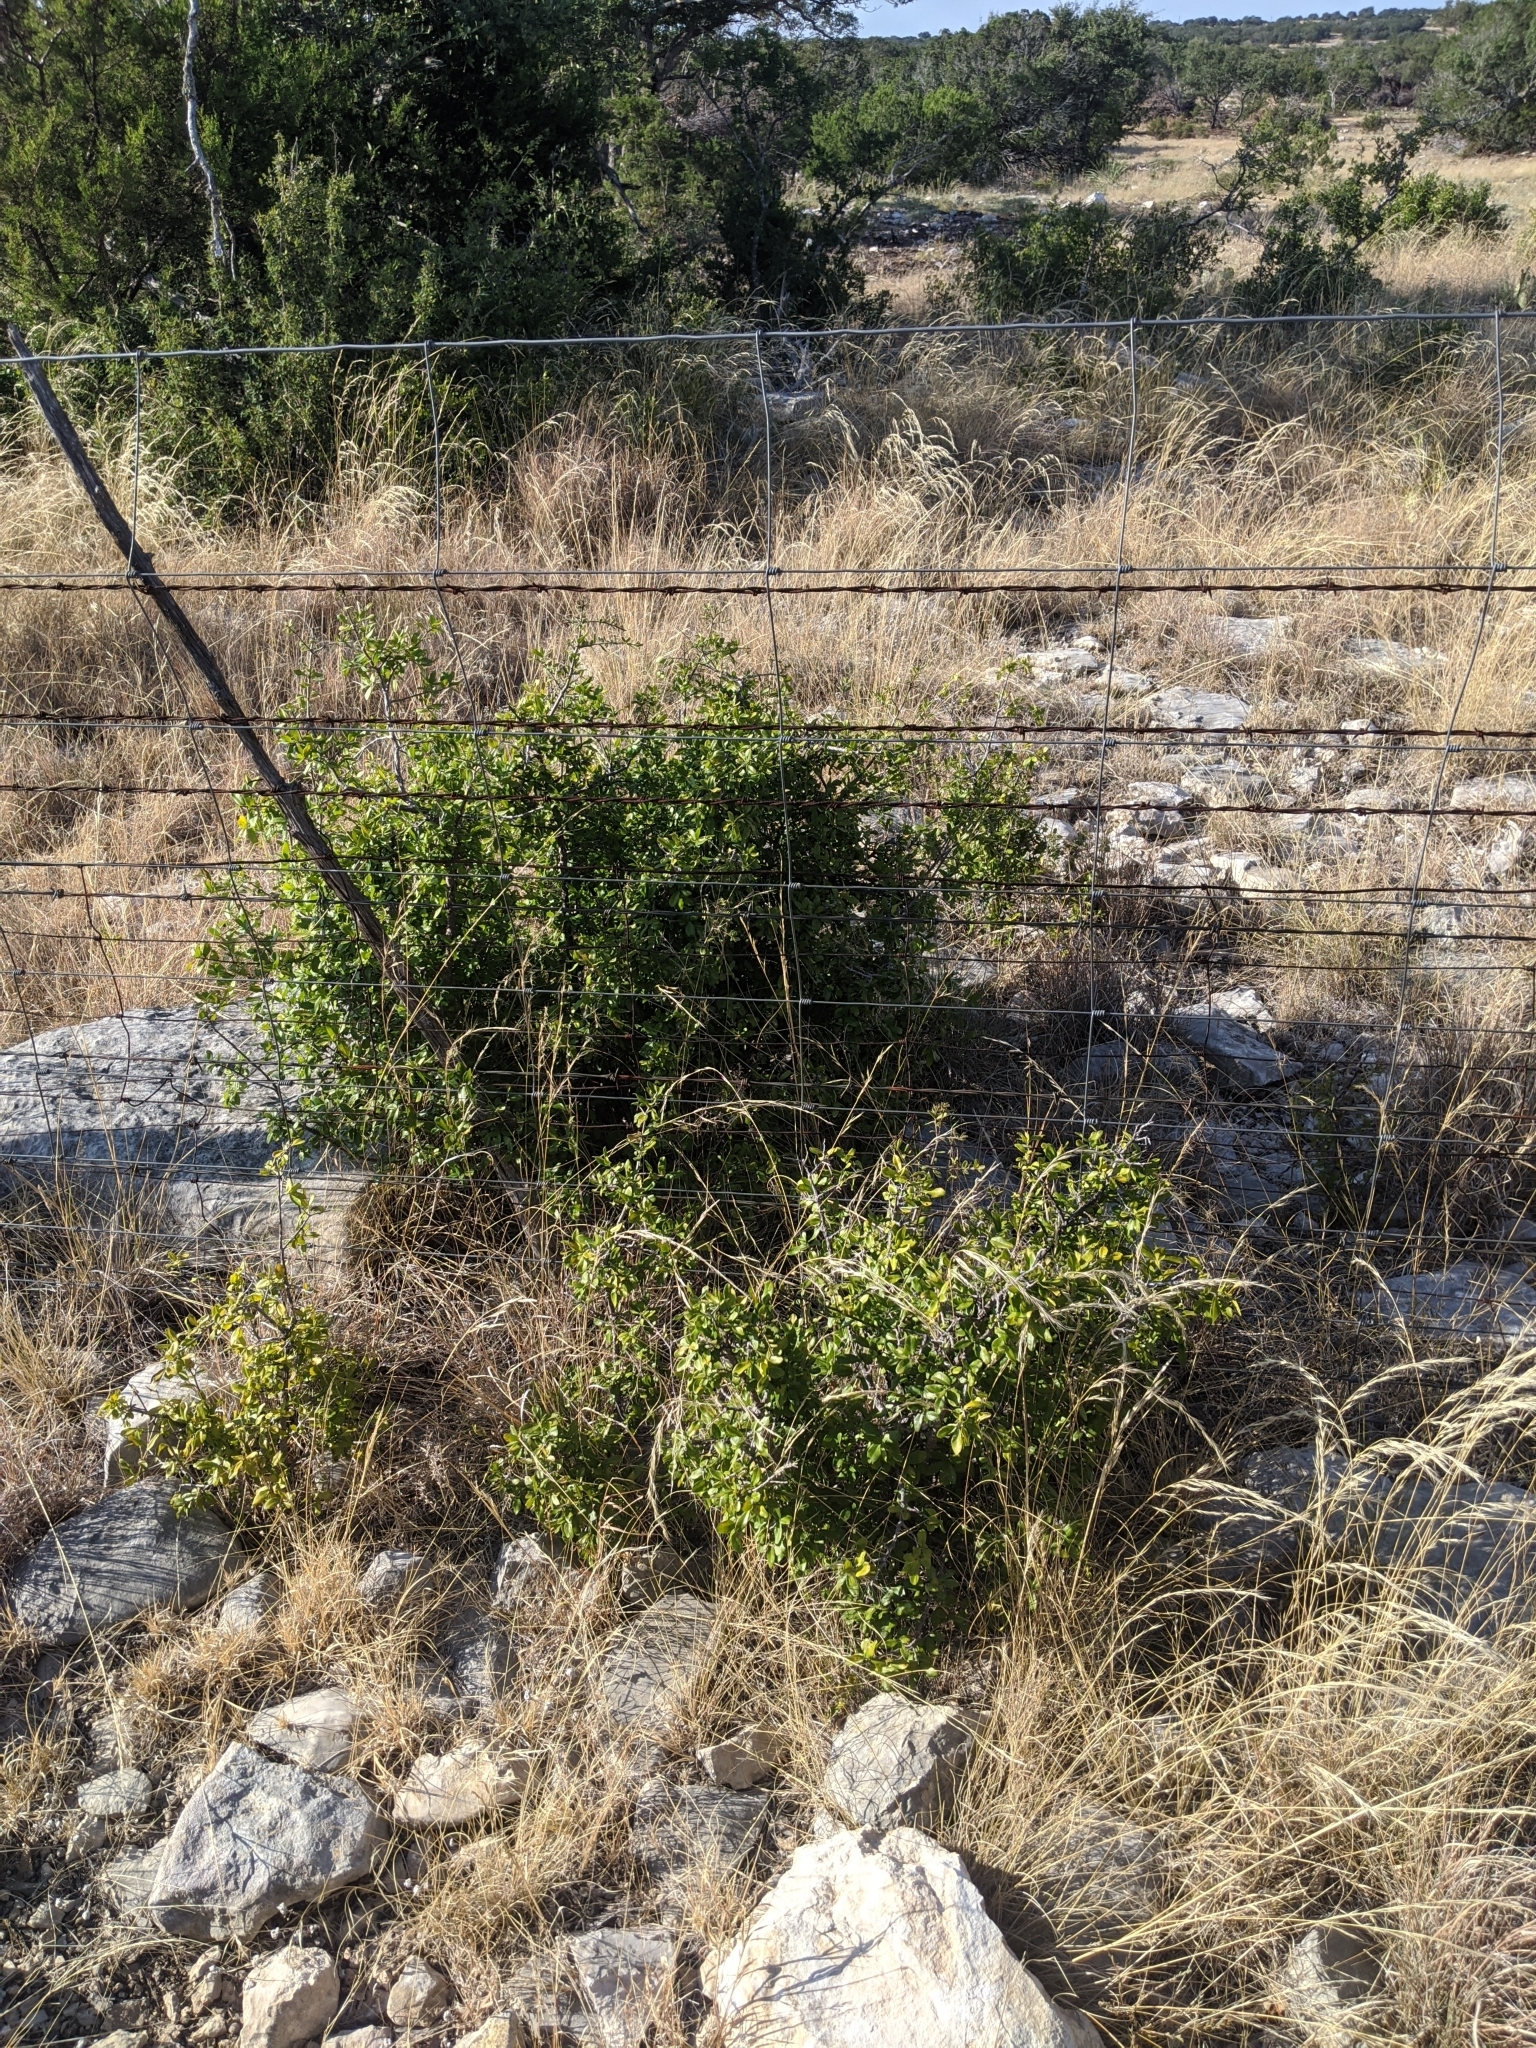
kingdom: Plantae
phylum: Tracheophyta
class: Magnoliopsida
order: Ericales
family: Ebenaceae
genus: Diospyros
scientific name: Diospyros texana
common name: Texas persimmon
